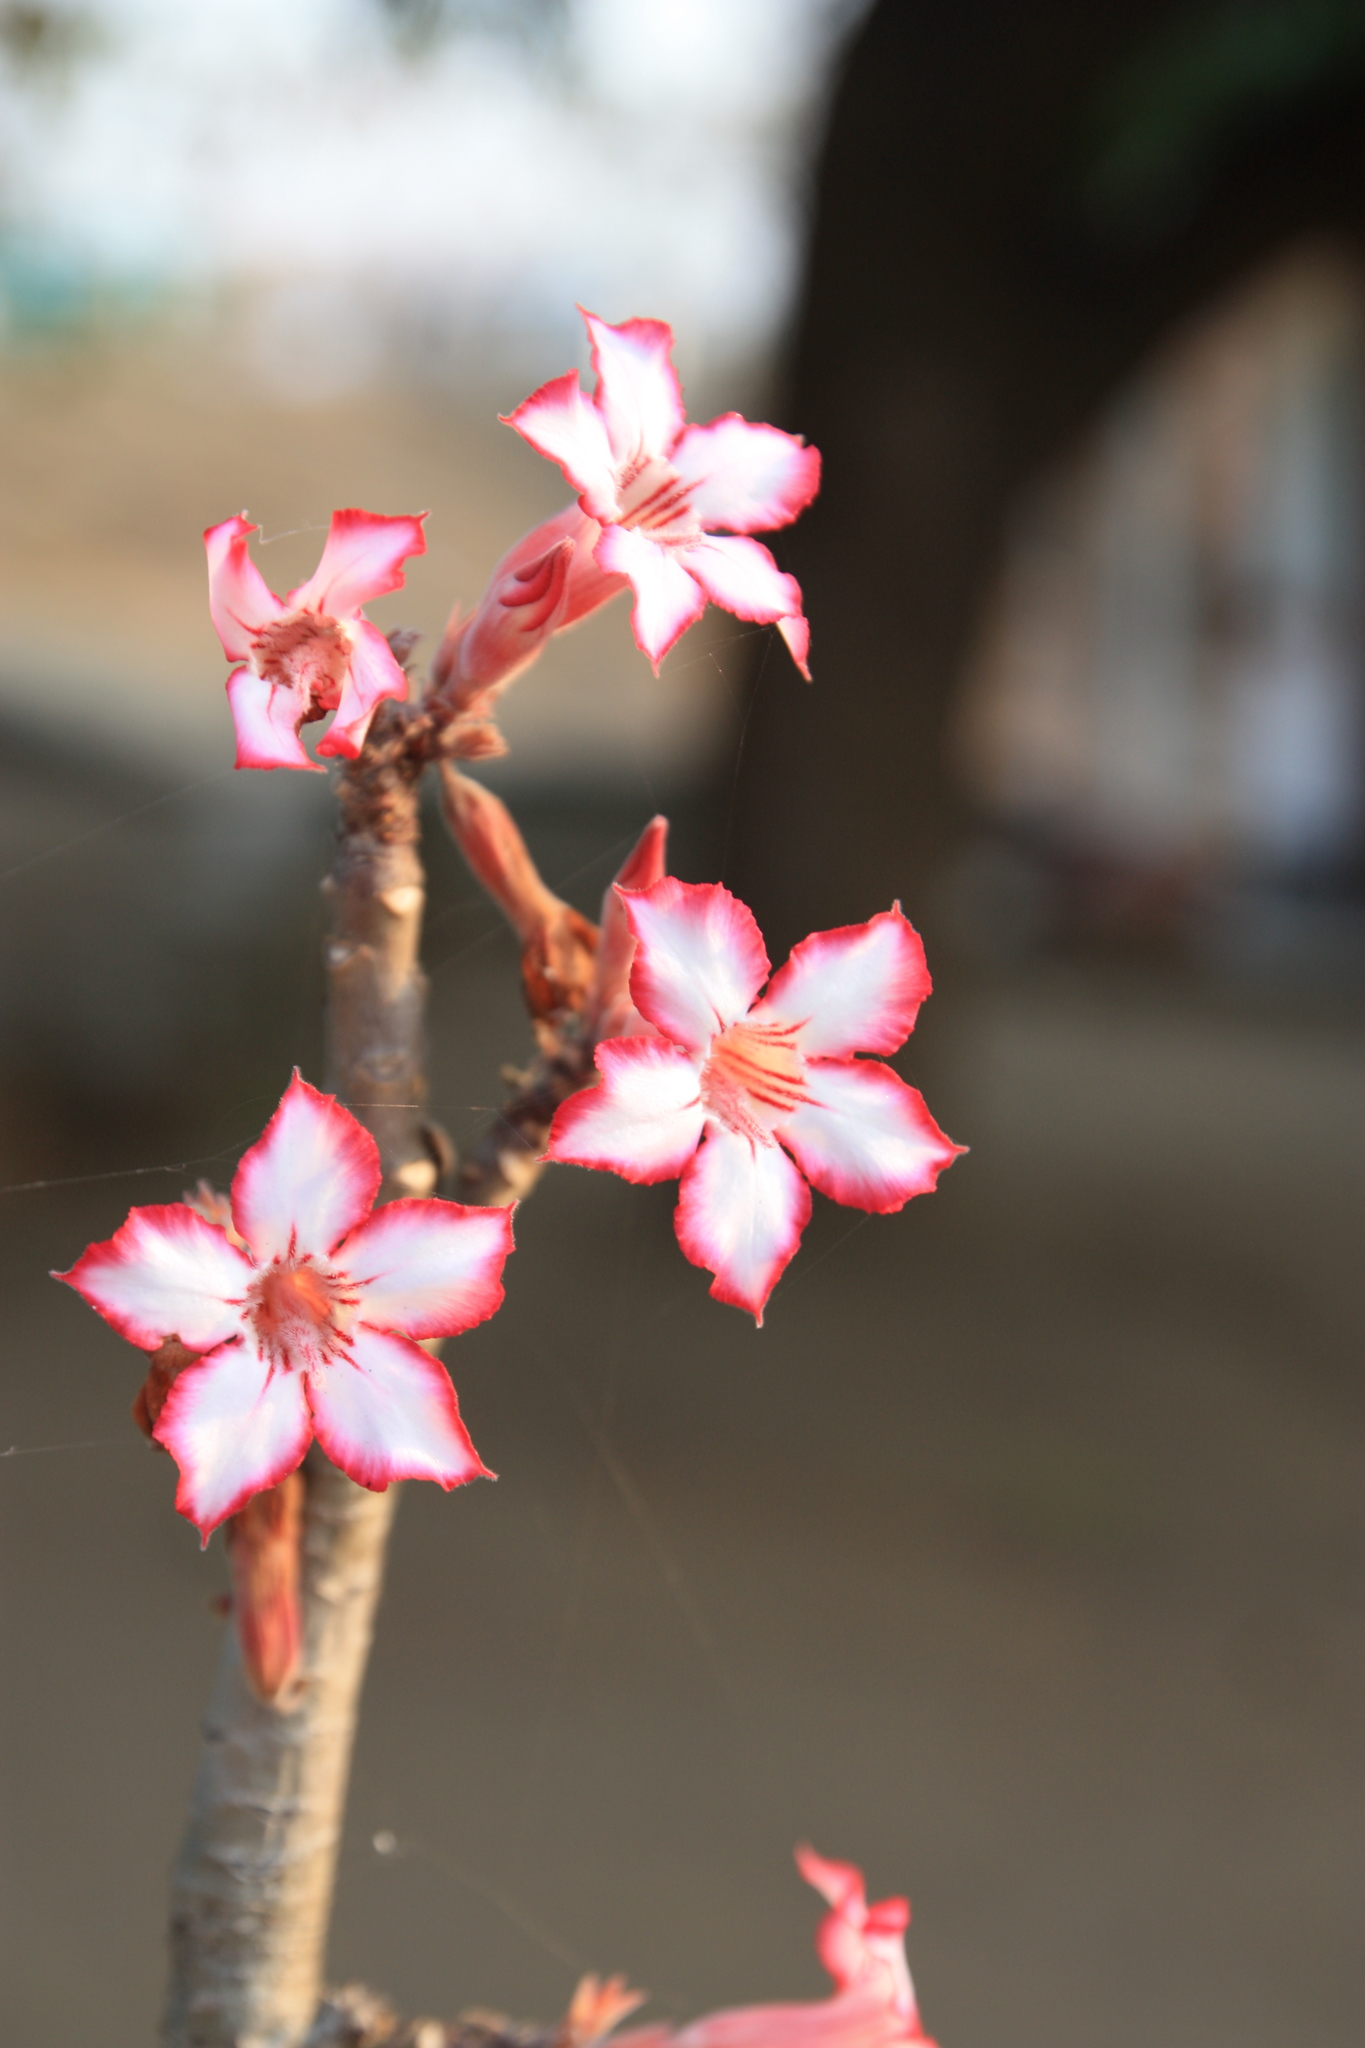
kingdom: Plantae
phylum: Tracheophyta
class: Magnoliopsida
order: Gentianales
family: Apocynaceae
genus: Adenium
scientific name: Adenium obesum
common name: Desert-rose
